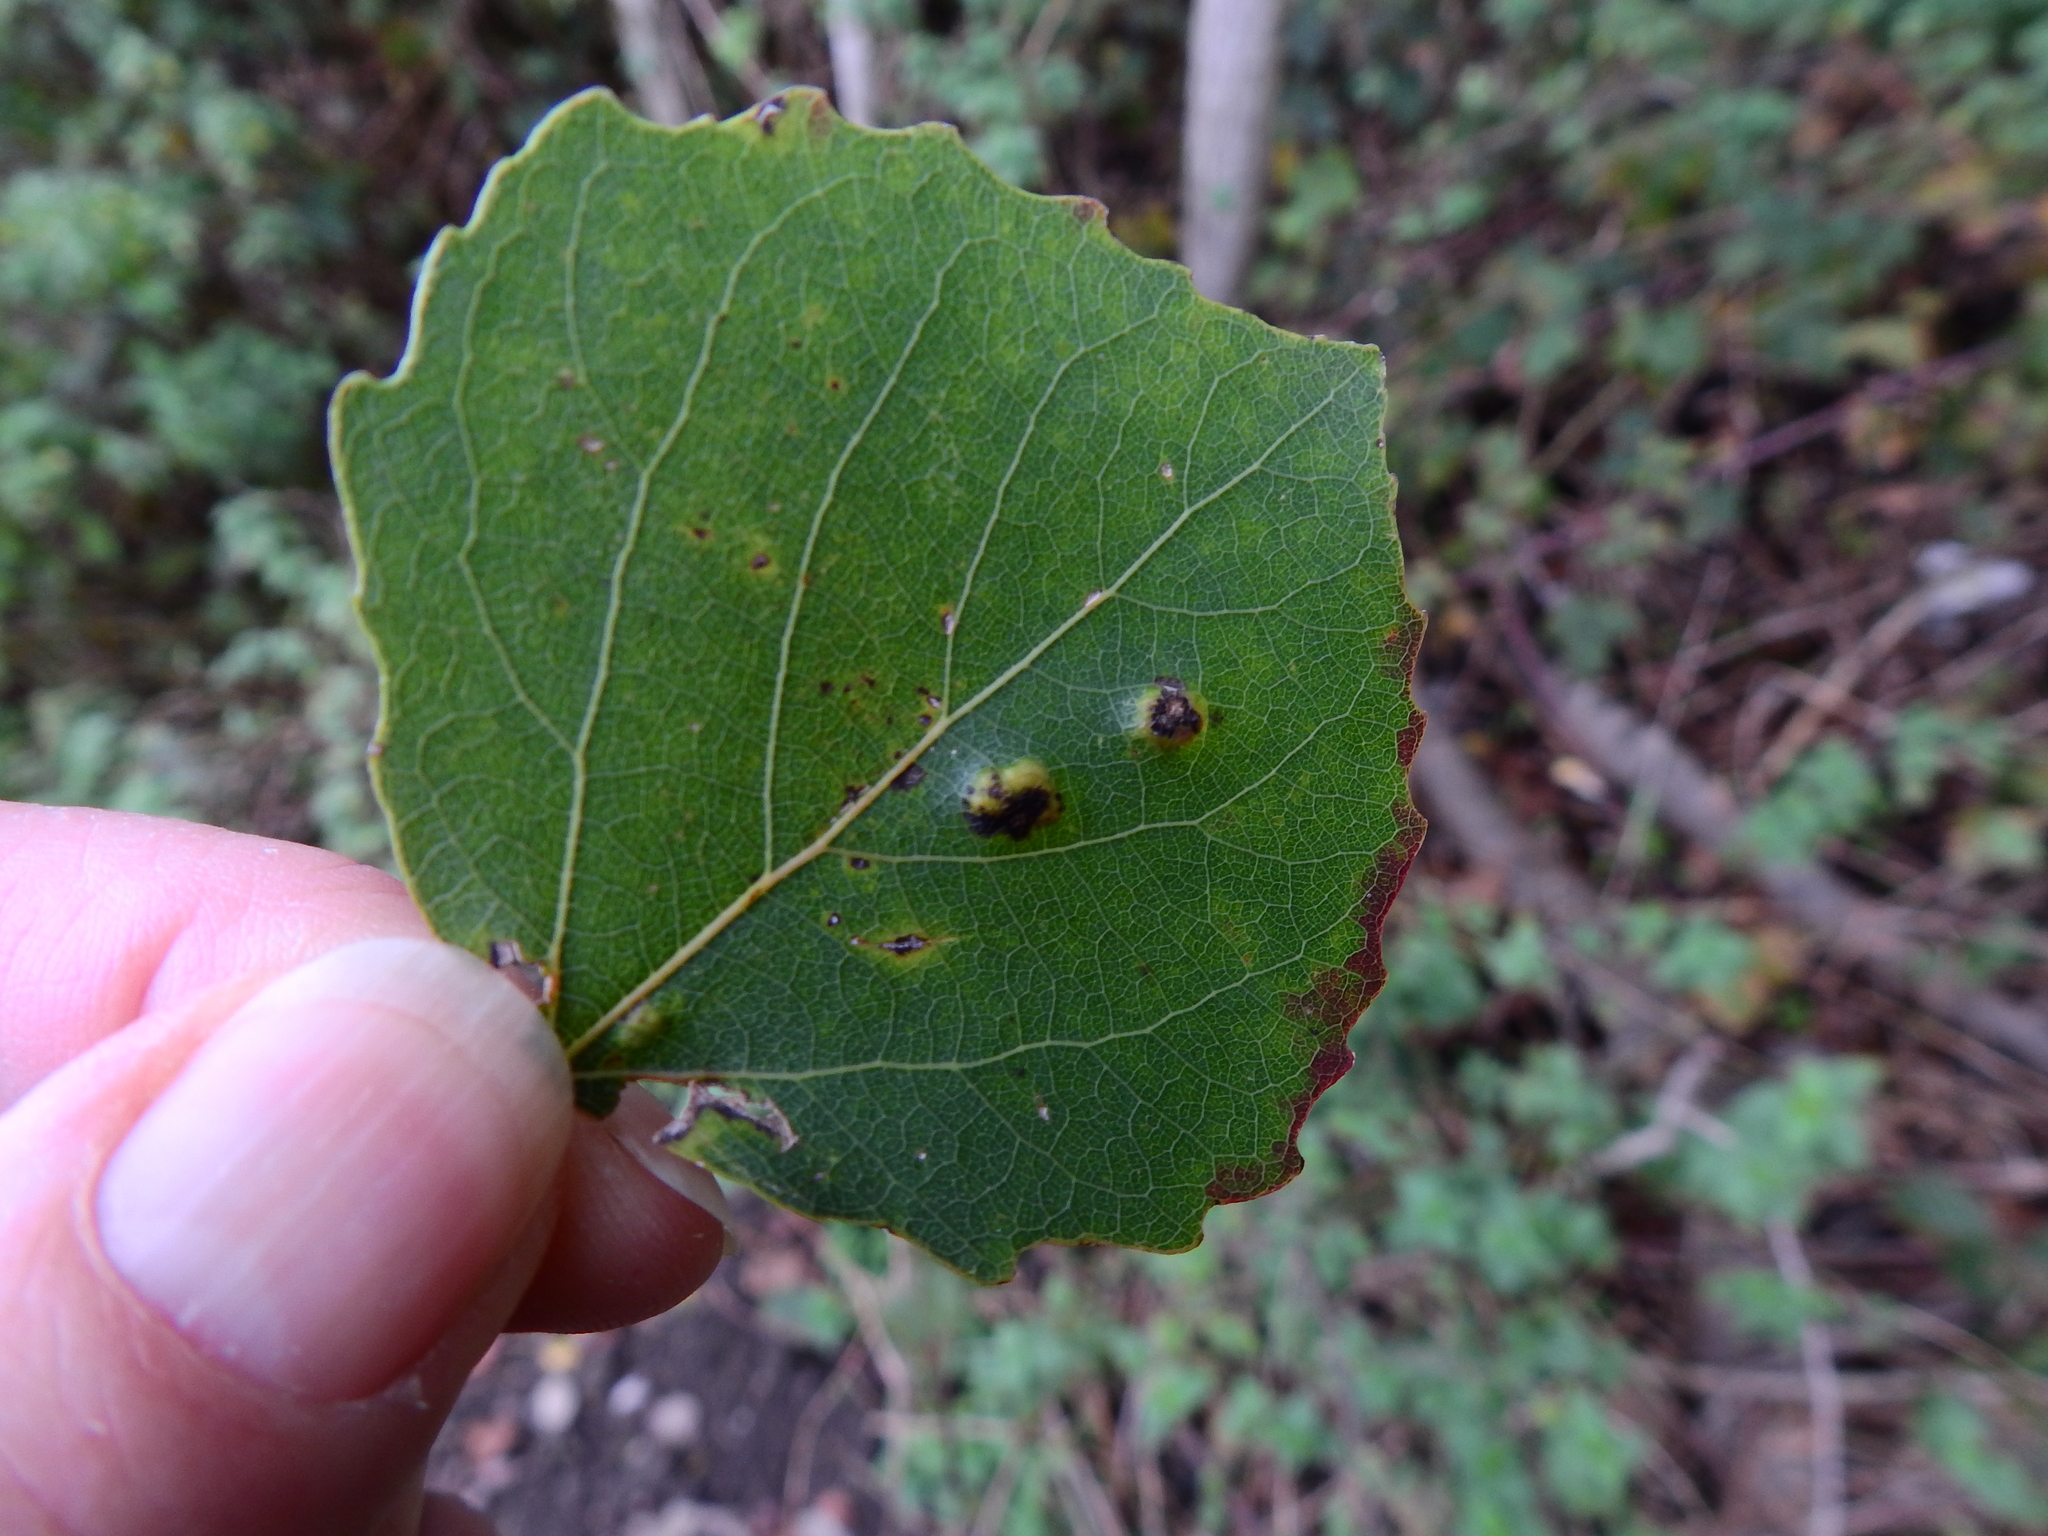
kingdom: Animalia
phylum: Arthropoda
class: Arachnida
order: Trombidiformes
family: Eriophyidae
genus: Aceria
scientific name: Aceria varia
